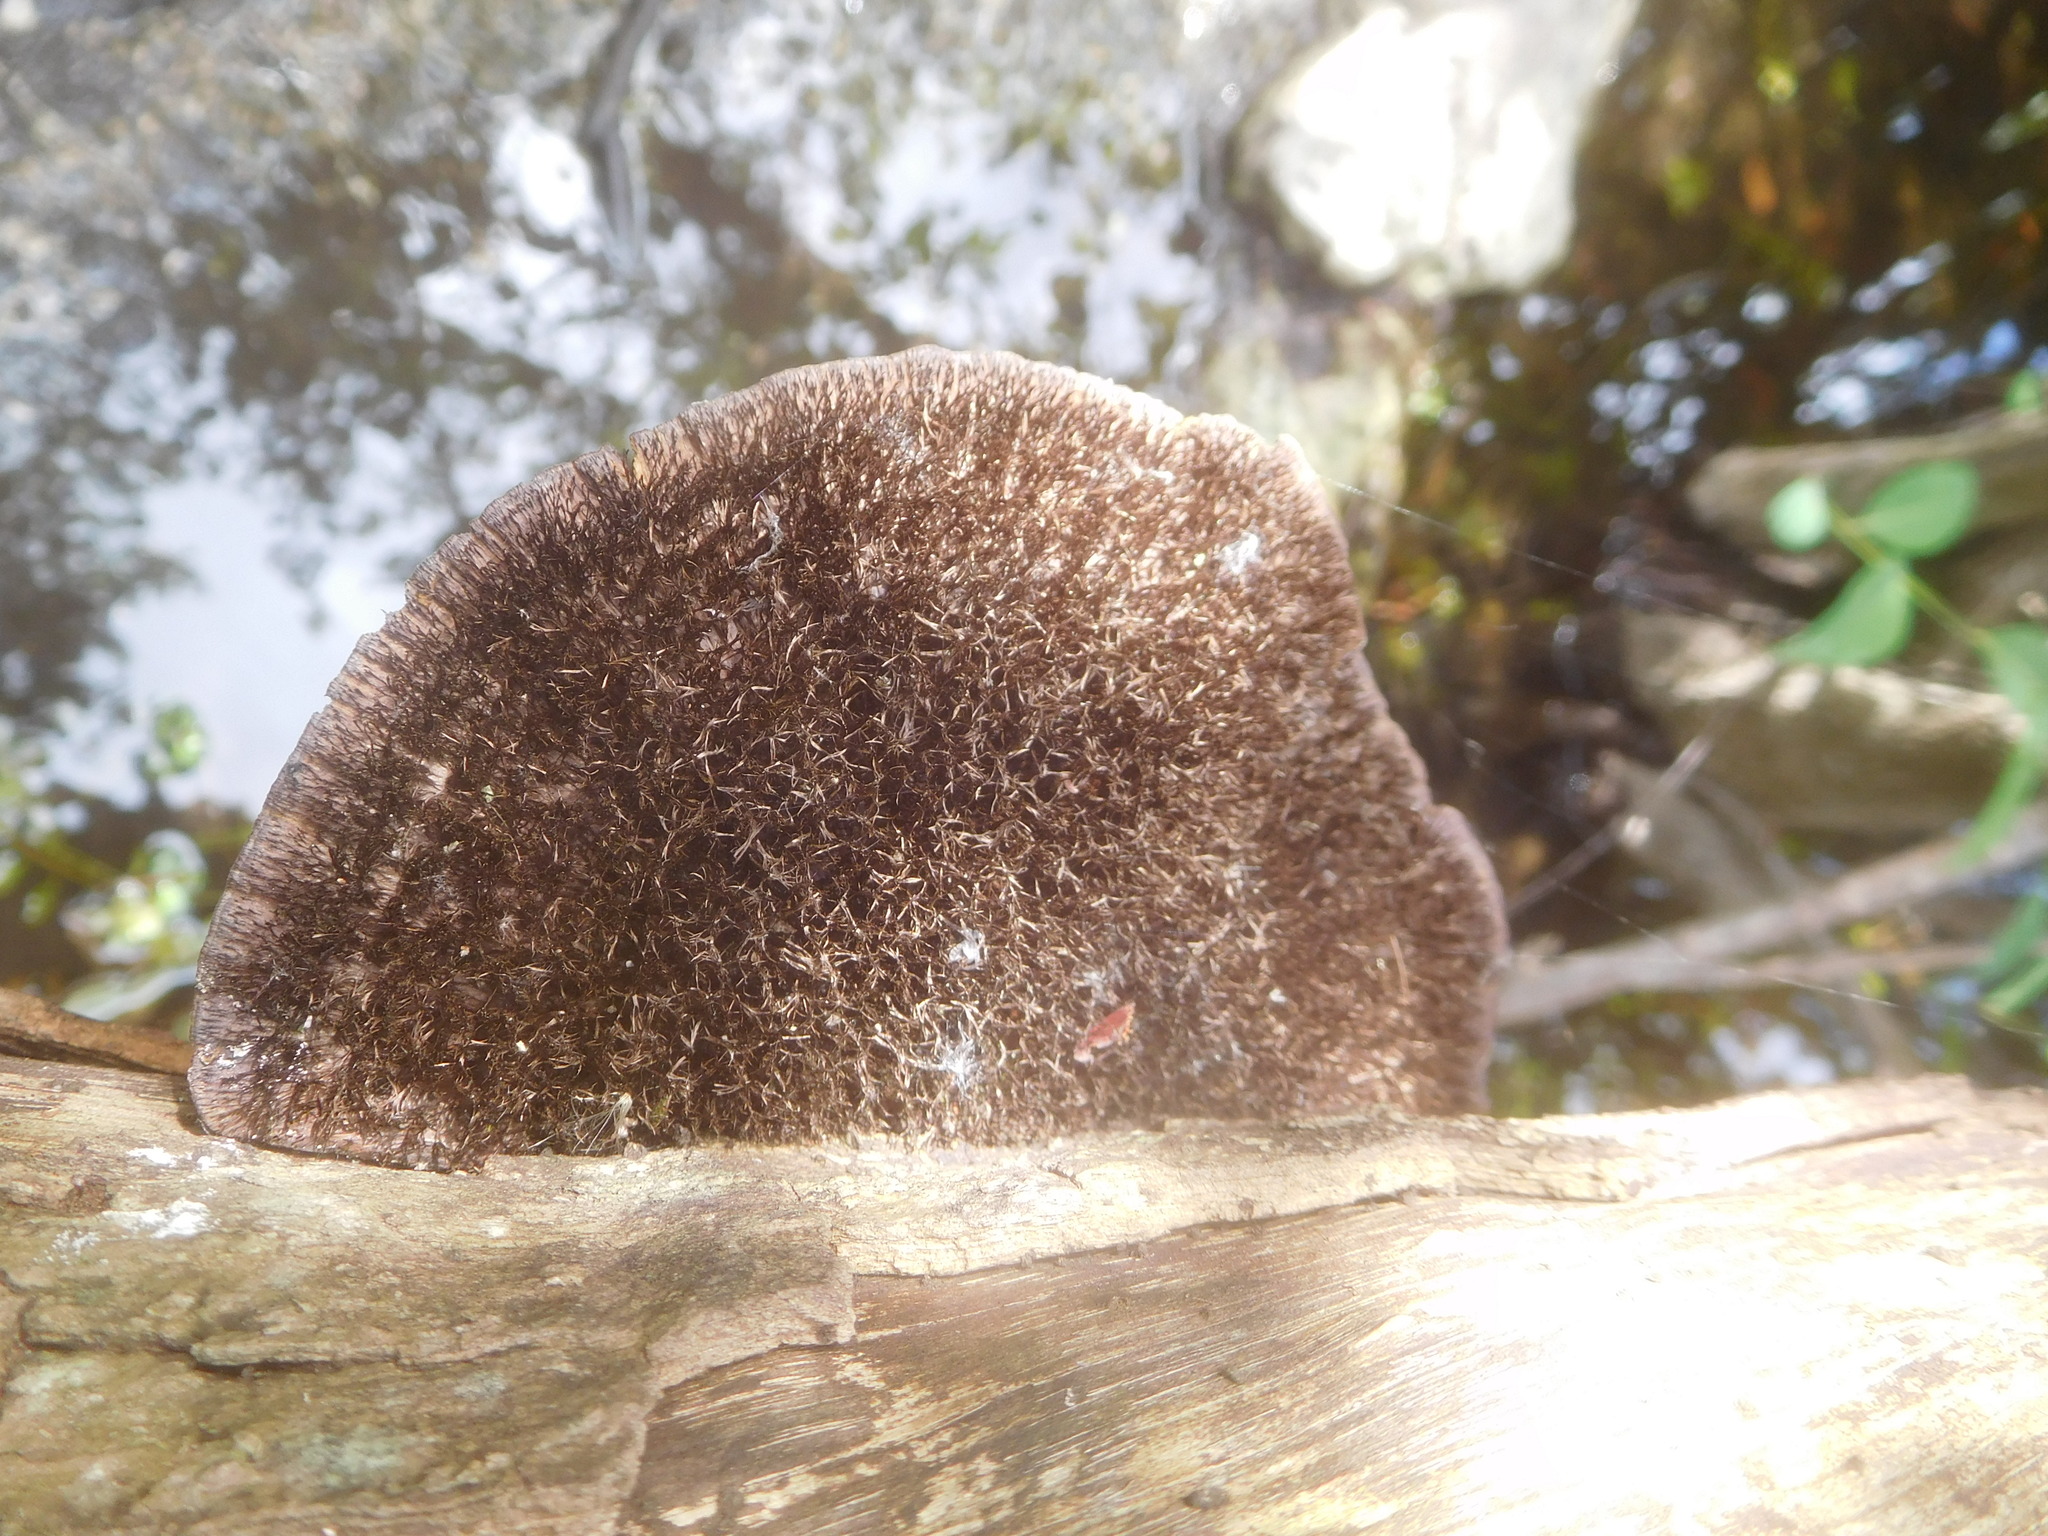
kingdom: Fungi
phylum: Basidiomycota
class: Agaricomycetes
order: Polyporales
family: Cerrenaceae
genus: Cerrena
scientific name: Cerrena hydnoides
